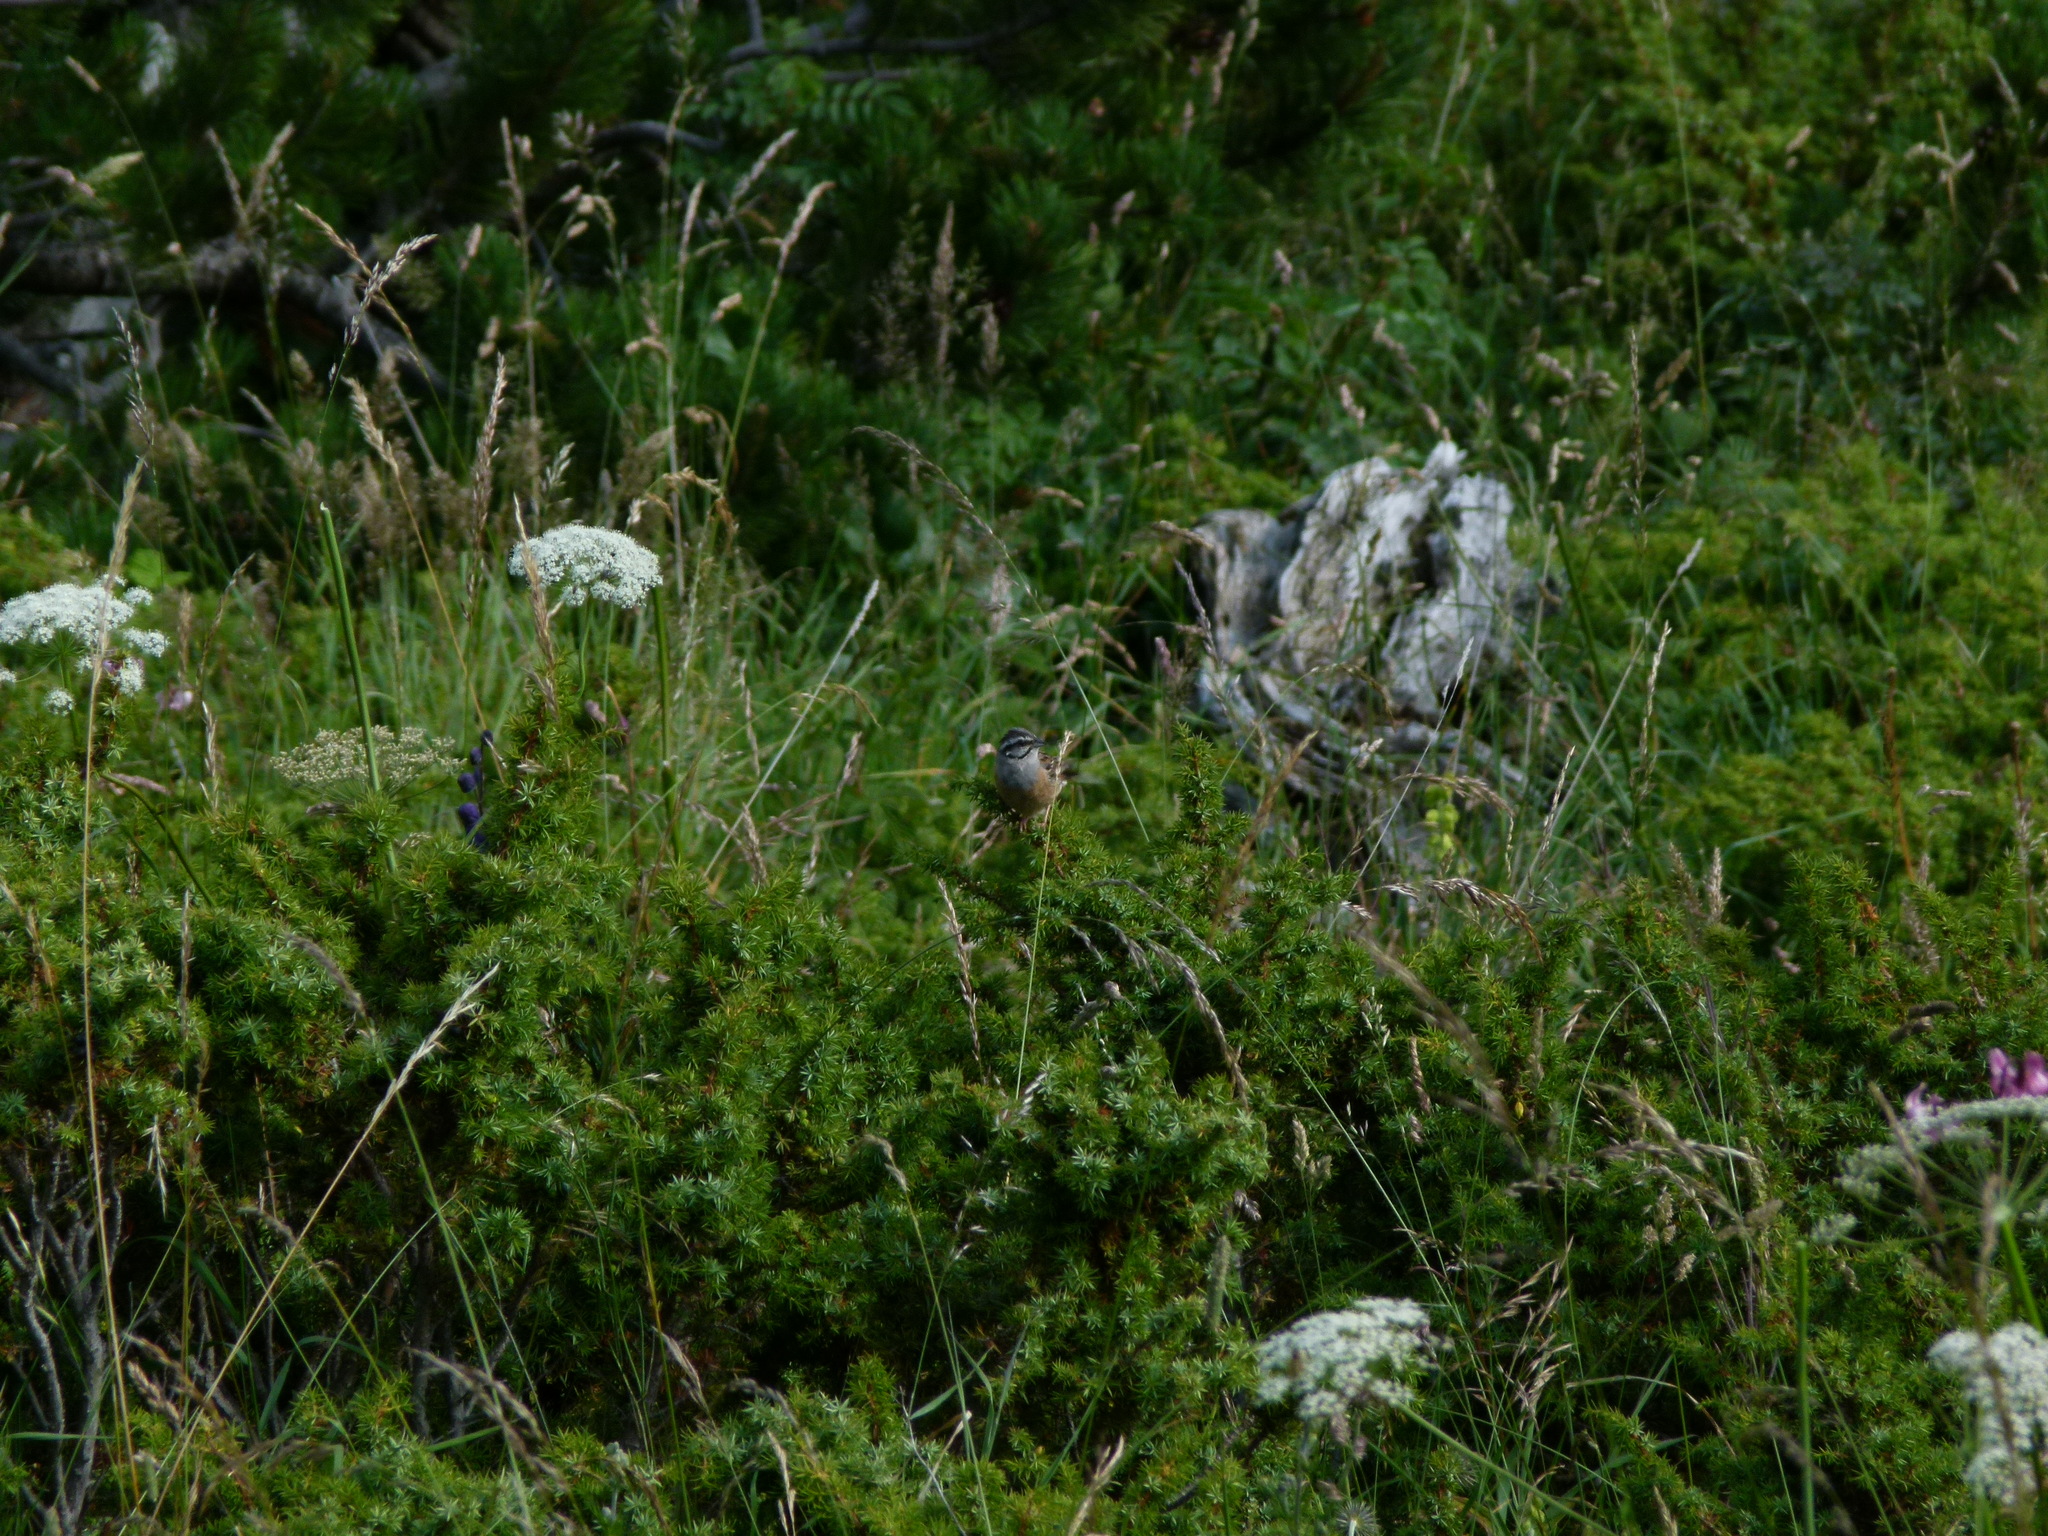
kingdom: Animalia
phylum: Chordata
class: Aves
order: Passeriformes
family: Emberizidae
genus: Emberiza
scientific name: Emberiza cia
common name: Rock bunting
